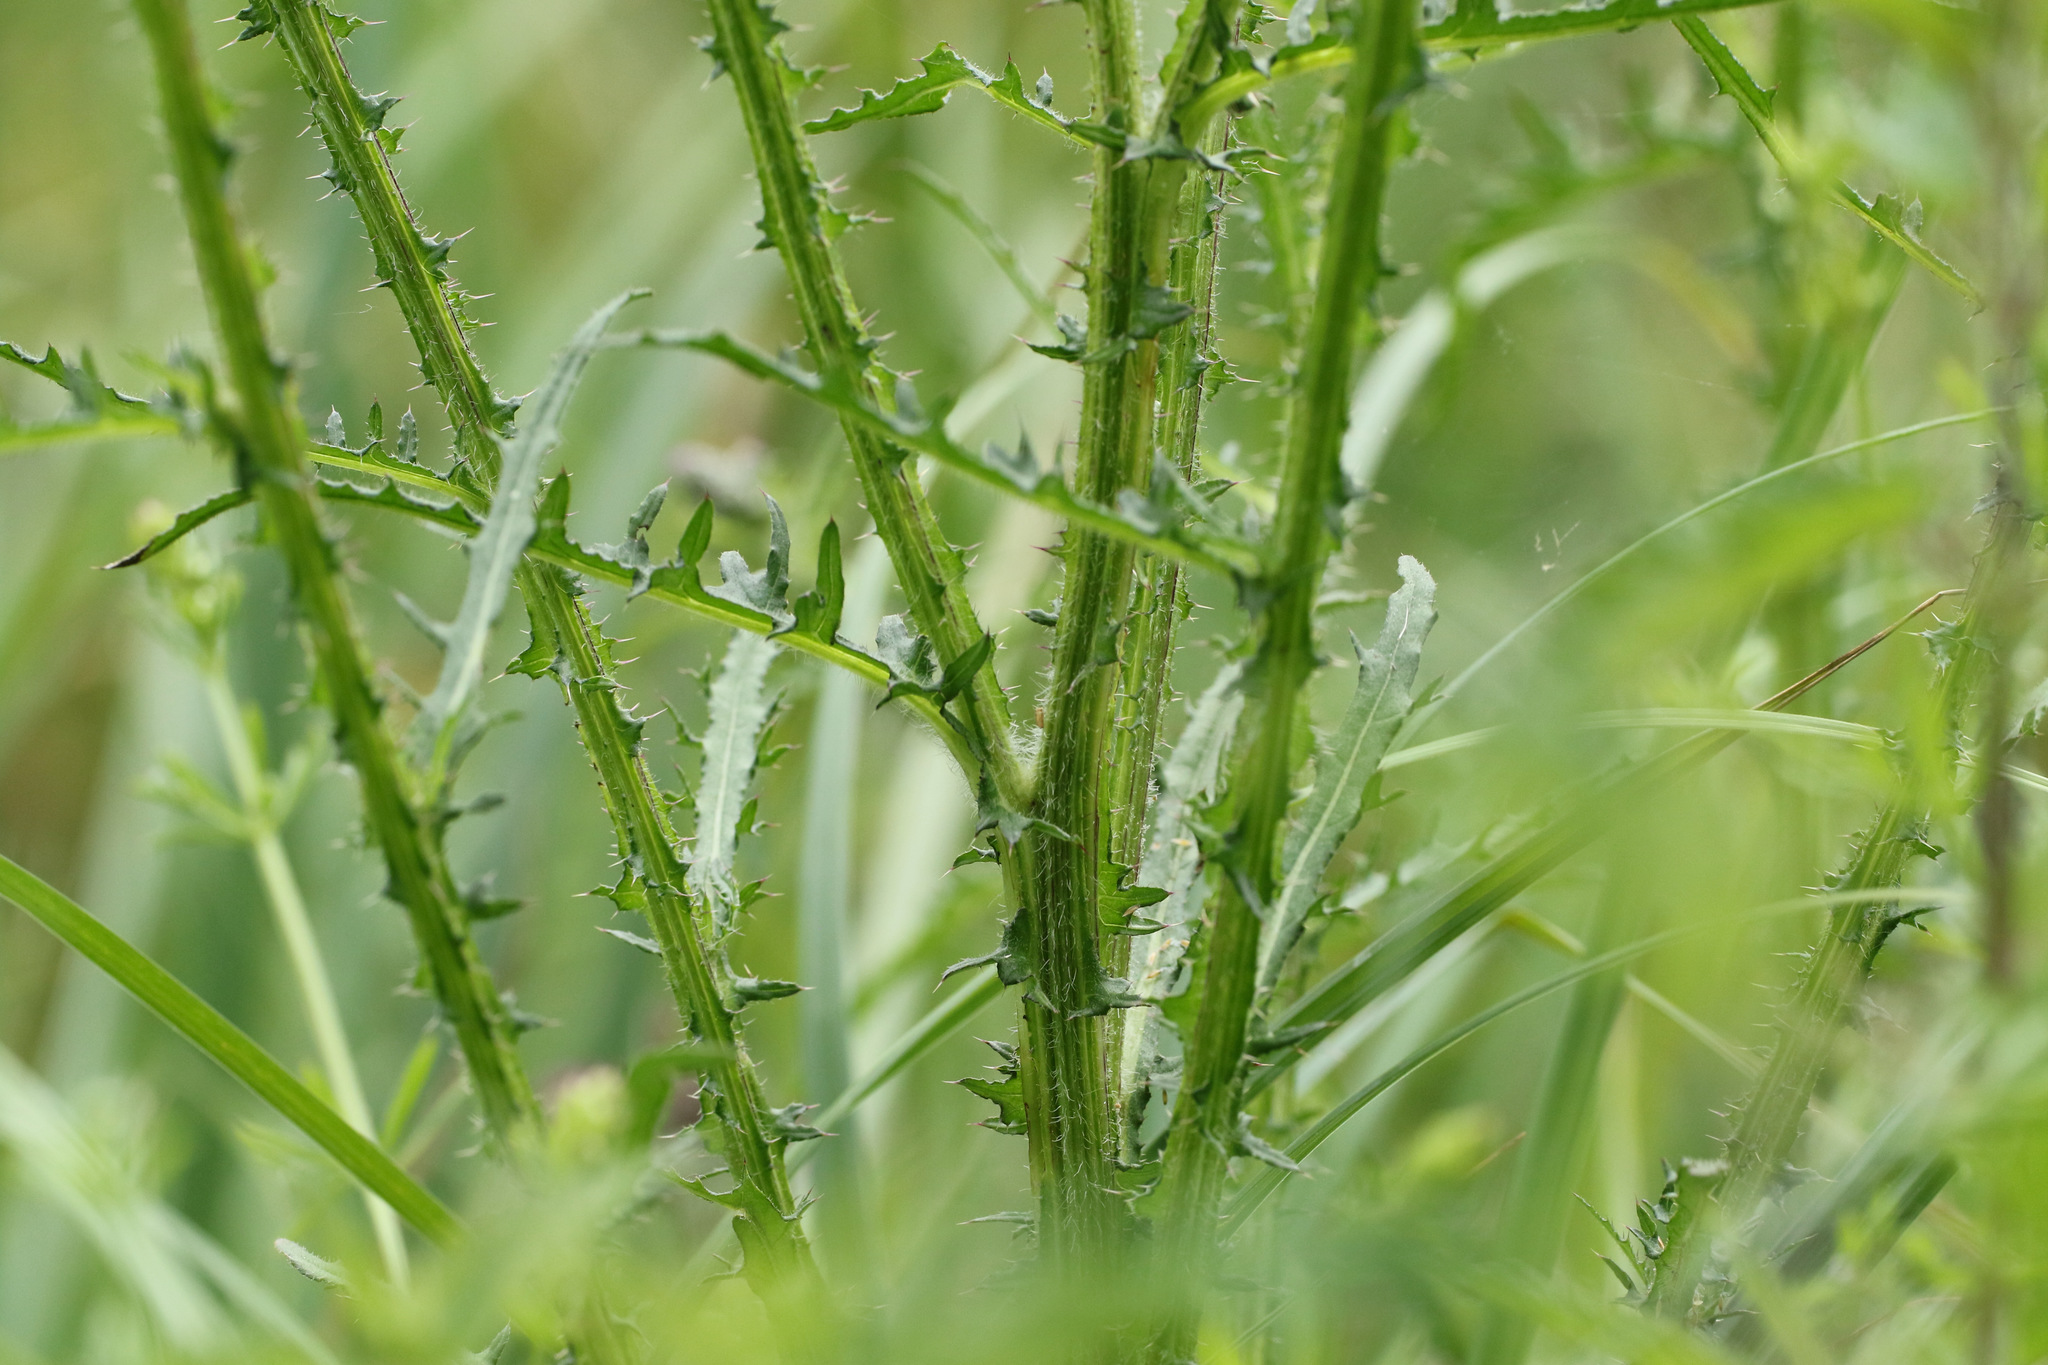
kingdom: Plantae
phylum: Tracheophyta
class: Magnoliopsida
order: Asterales
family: Asteraceae
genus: Cirsium
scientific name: Cirsium palustre
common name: Marsh thistle
